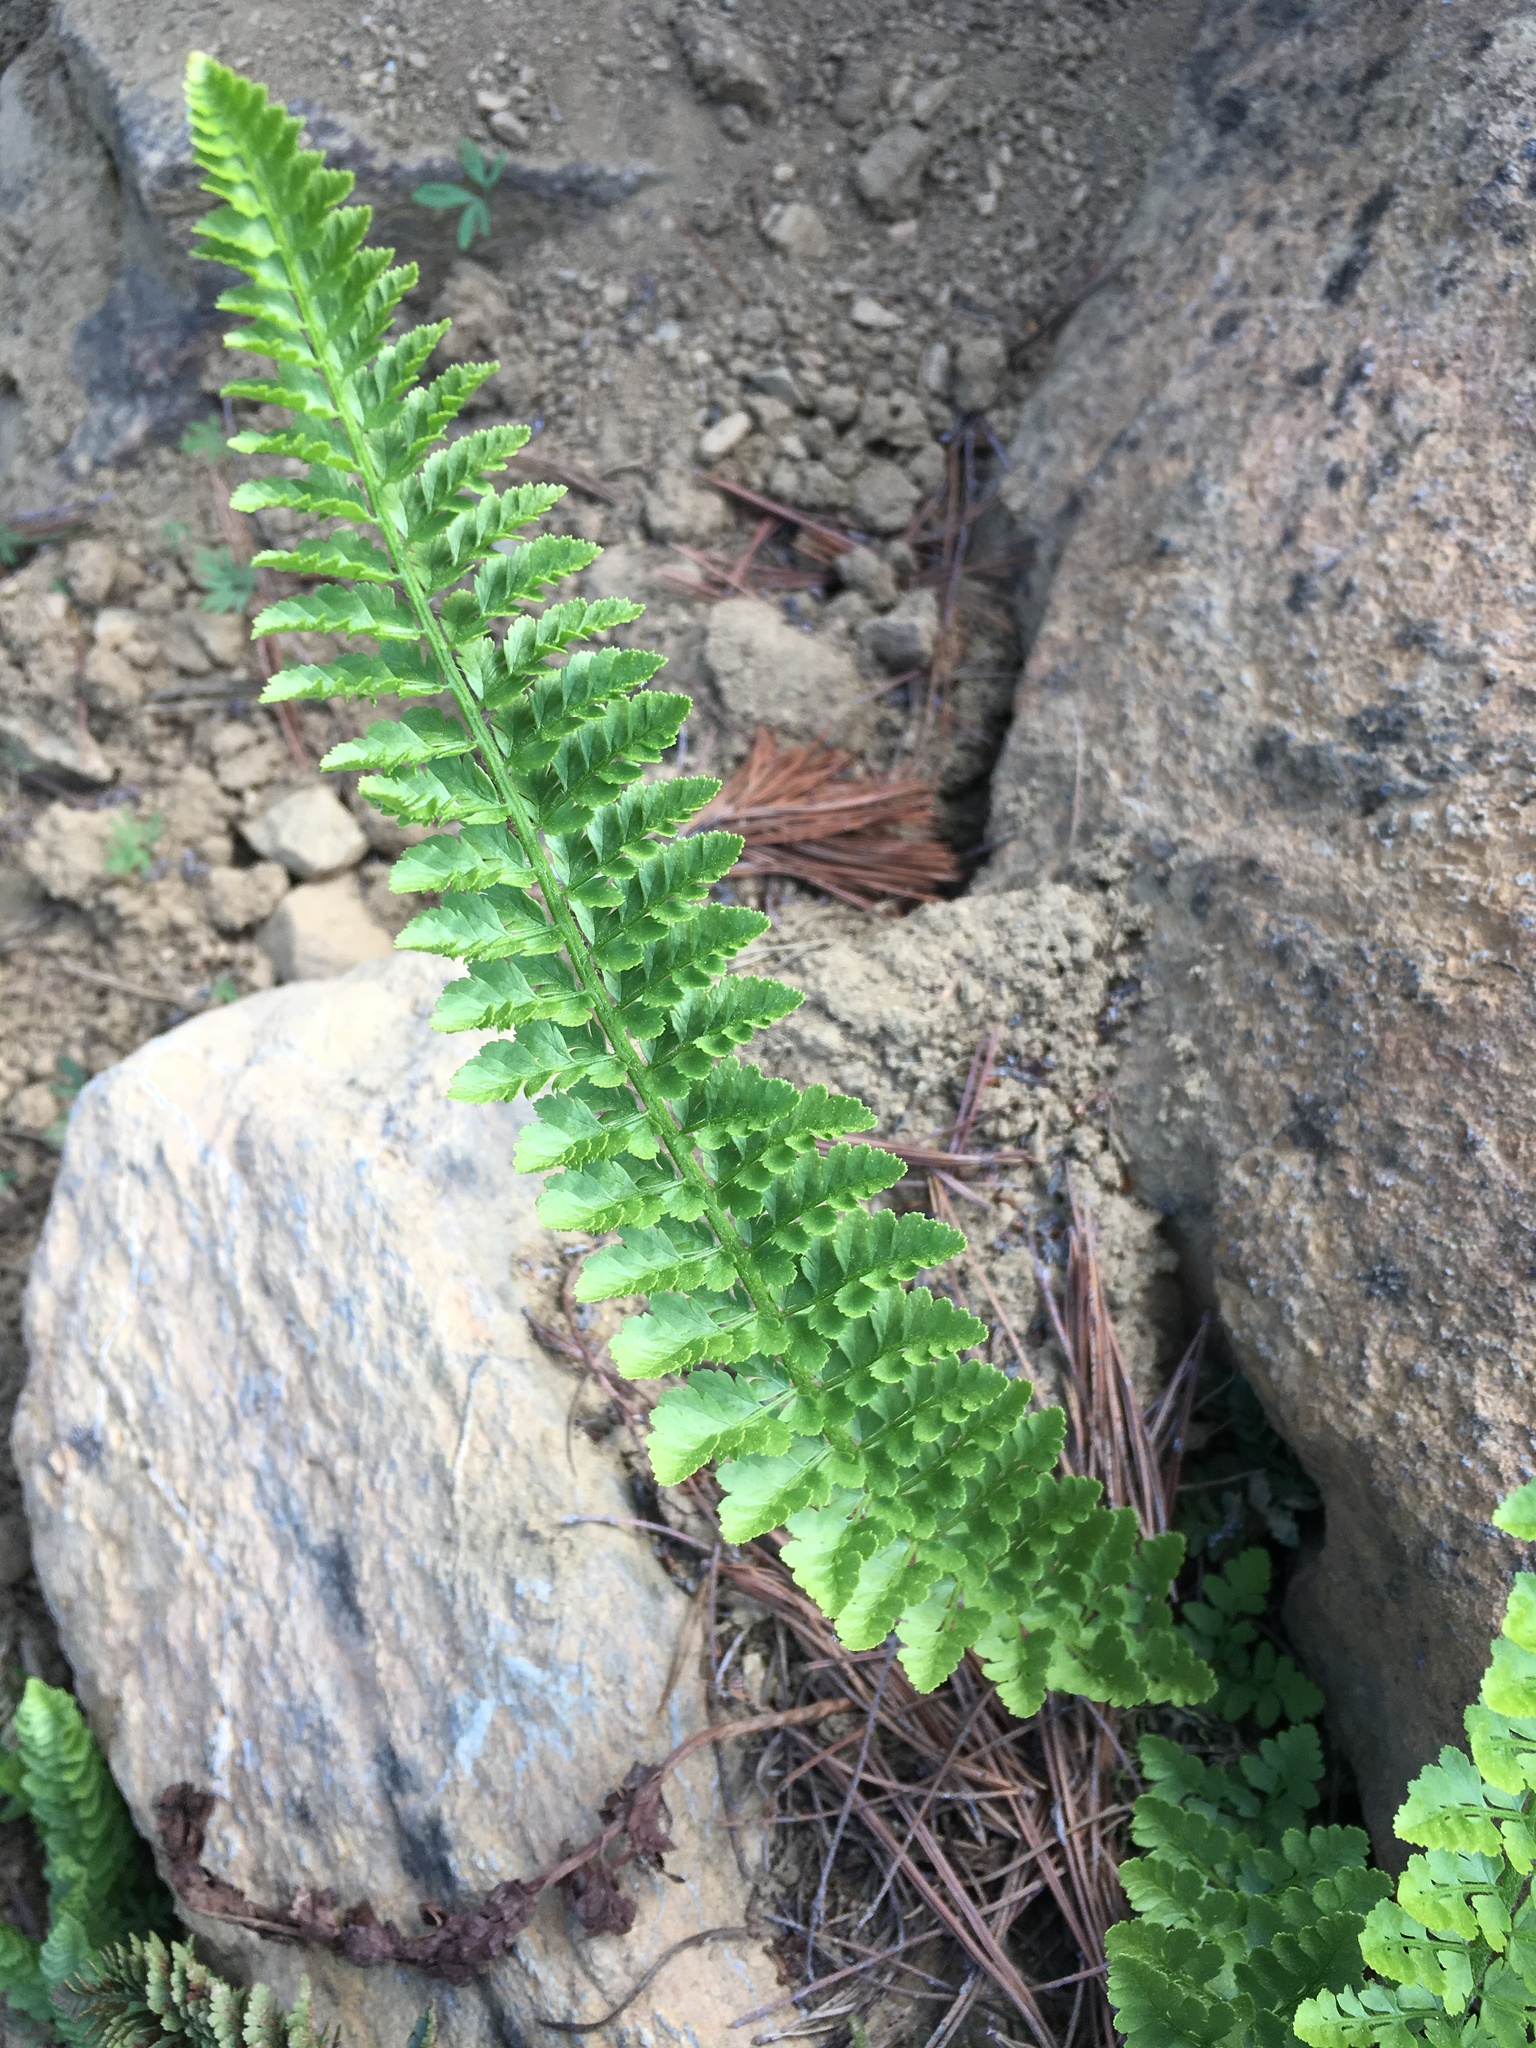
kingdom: Plantae
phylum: Tracheophyta
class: Polypodiopsida
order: Polypodiales
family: Dryopteridaceae
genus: Polystichum
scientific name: Polystichum lemmonii
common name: Lemmon's holly fern
